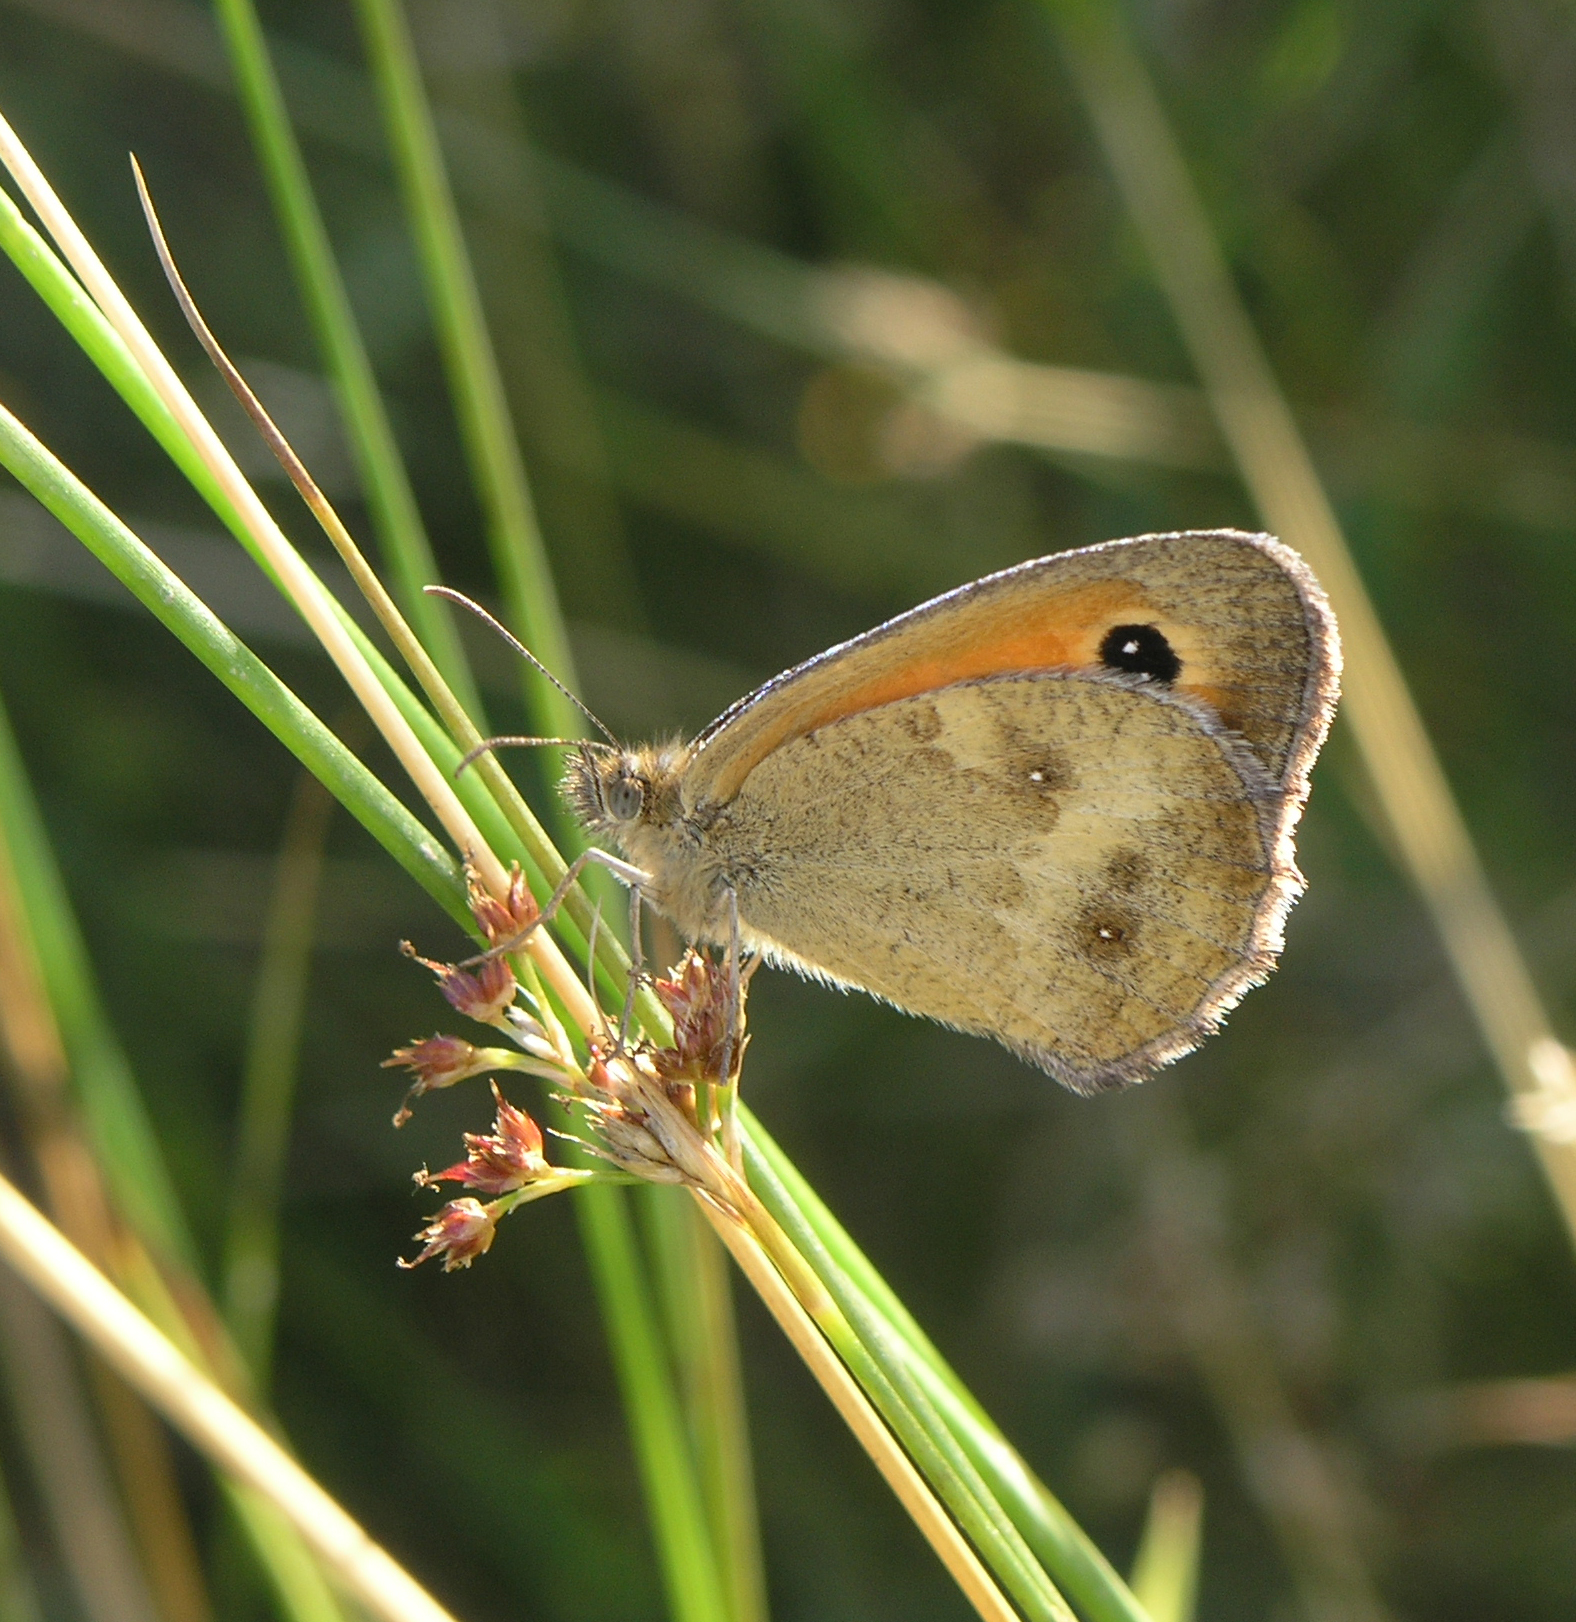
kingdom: Animalia
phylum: Arthropoda
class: Insecta
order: Lepidoptera
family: Nymphalidae
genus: Pyronia
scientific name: Pyronia tithonus
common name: Gatekeeper
